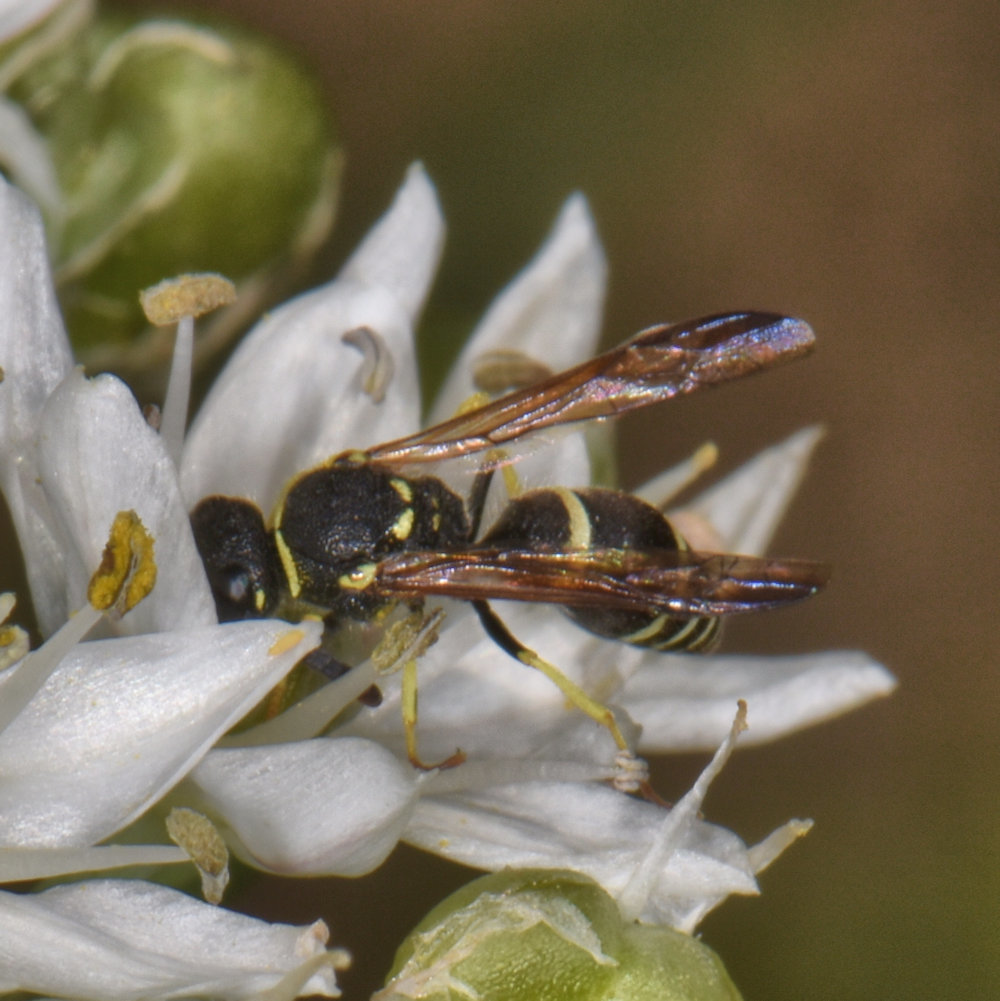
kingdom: Animalia
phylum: Arthropoda
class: Insecta
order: Hymenoptera
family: Vespidae
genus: Ancistrocerus
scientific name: Ancistrocerus
